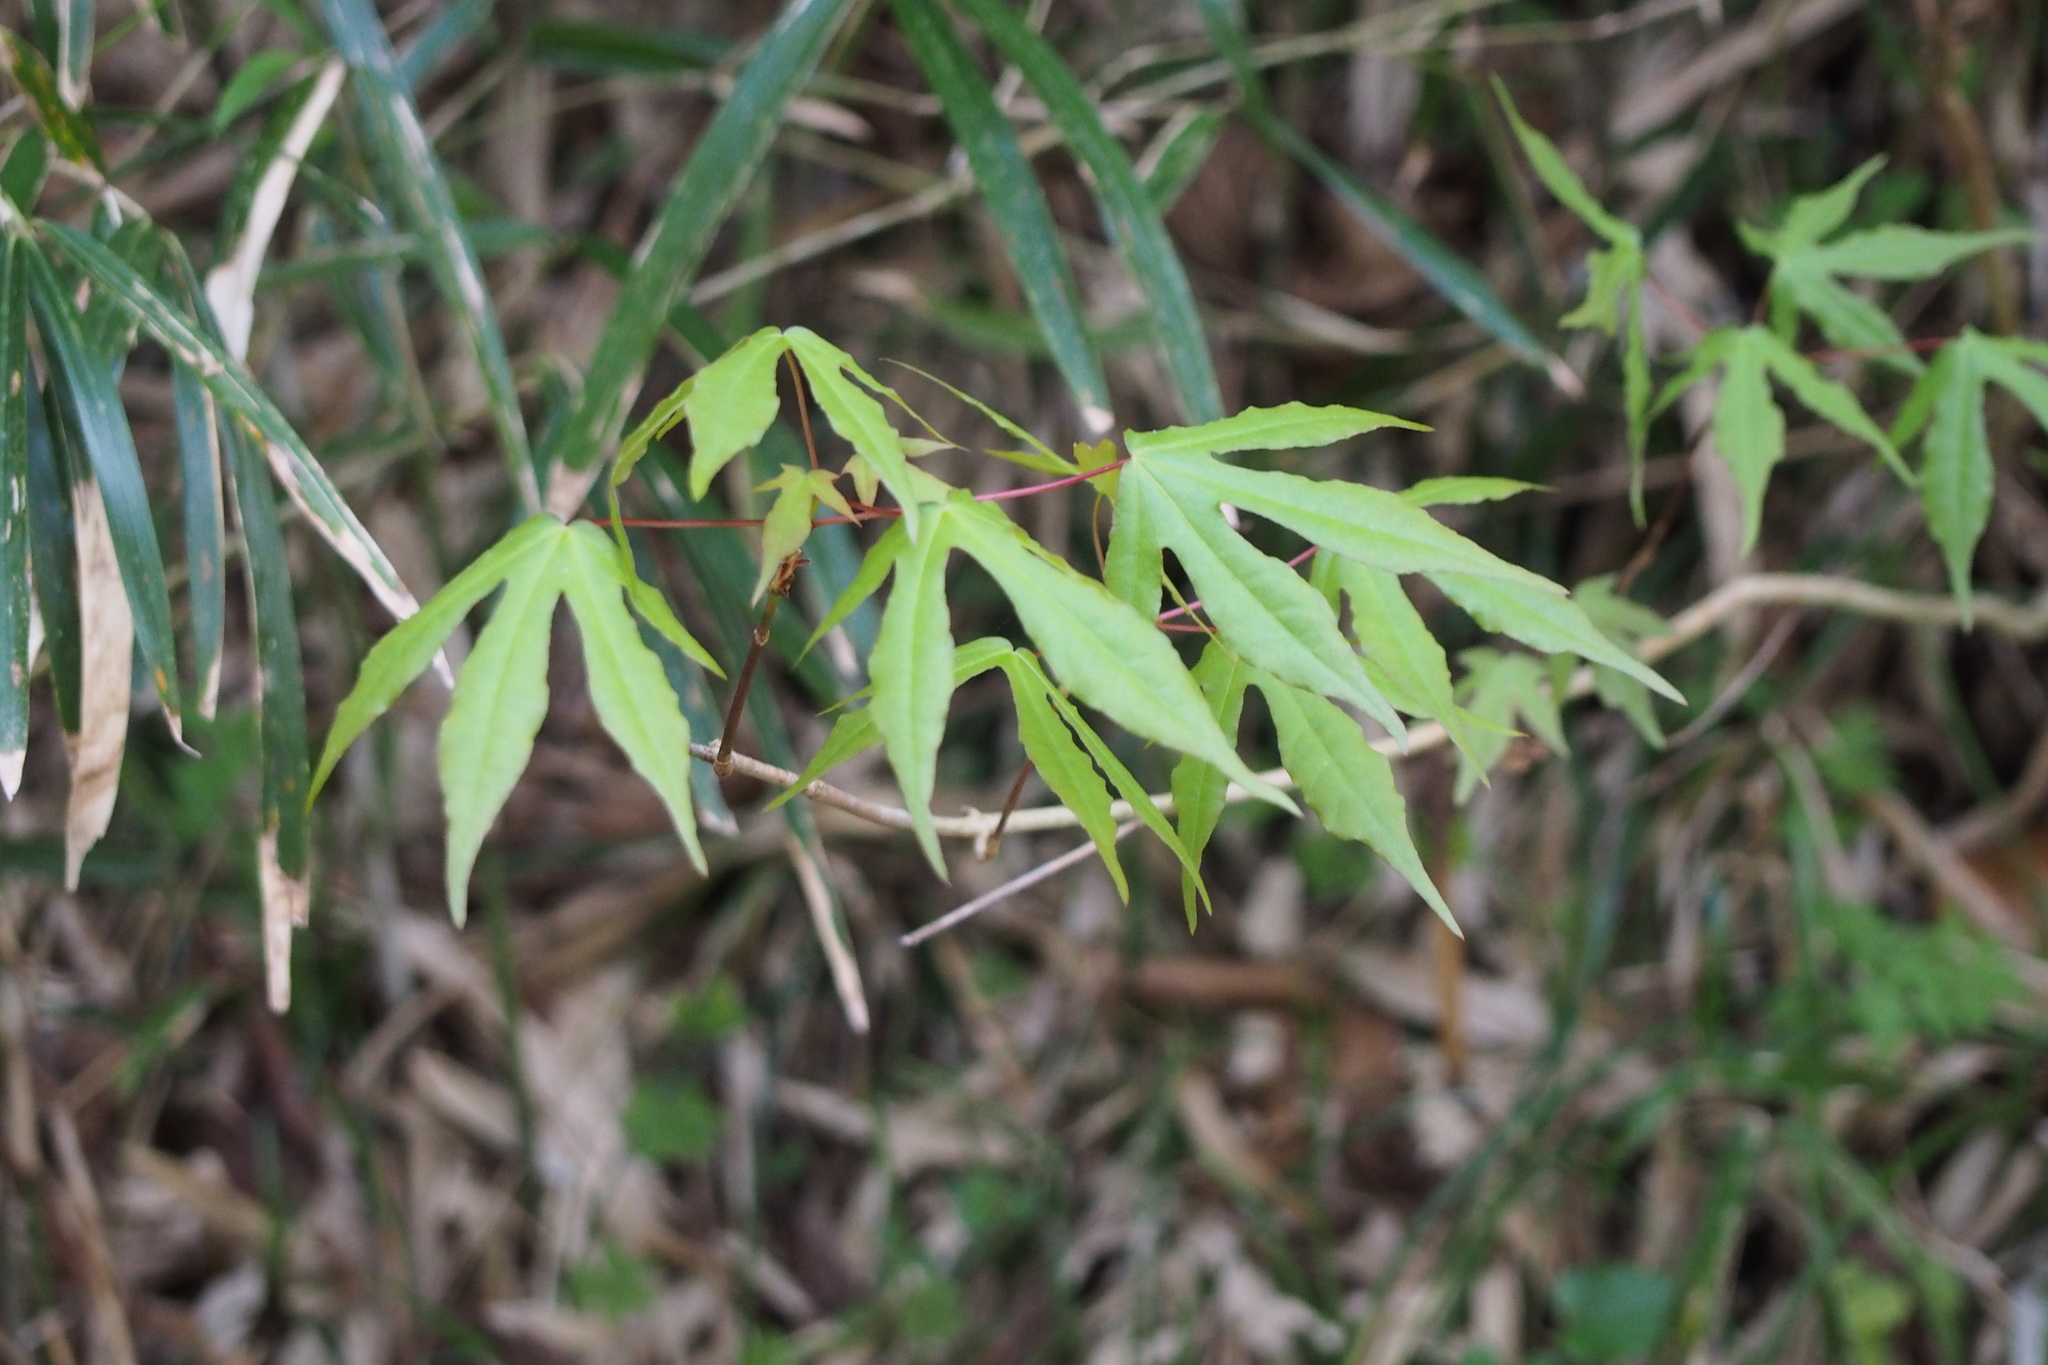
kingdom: Plantae
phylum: Tracheophyta
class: Magnoliopsida
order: Sapindales
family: Sapindaceae
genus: Acer
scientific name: Acer pictum
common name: The painted maple
